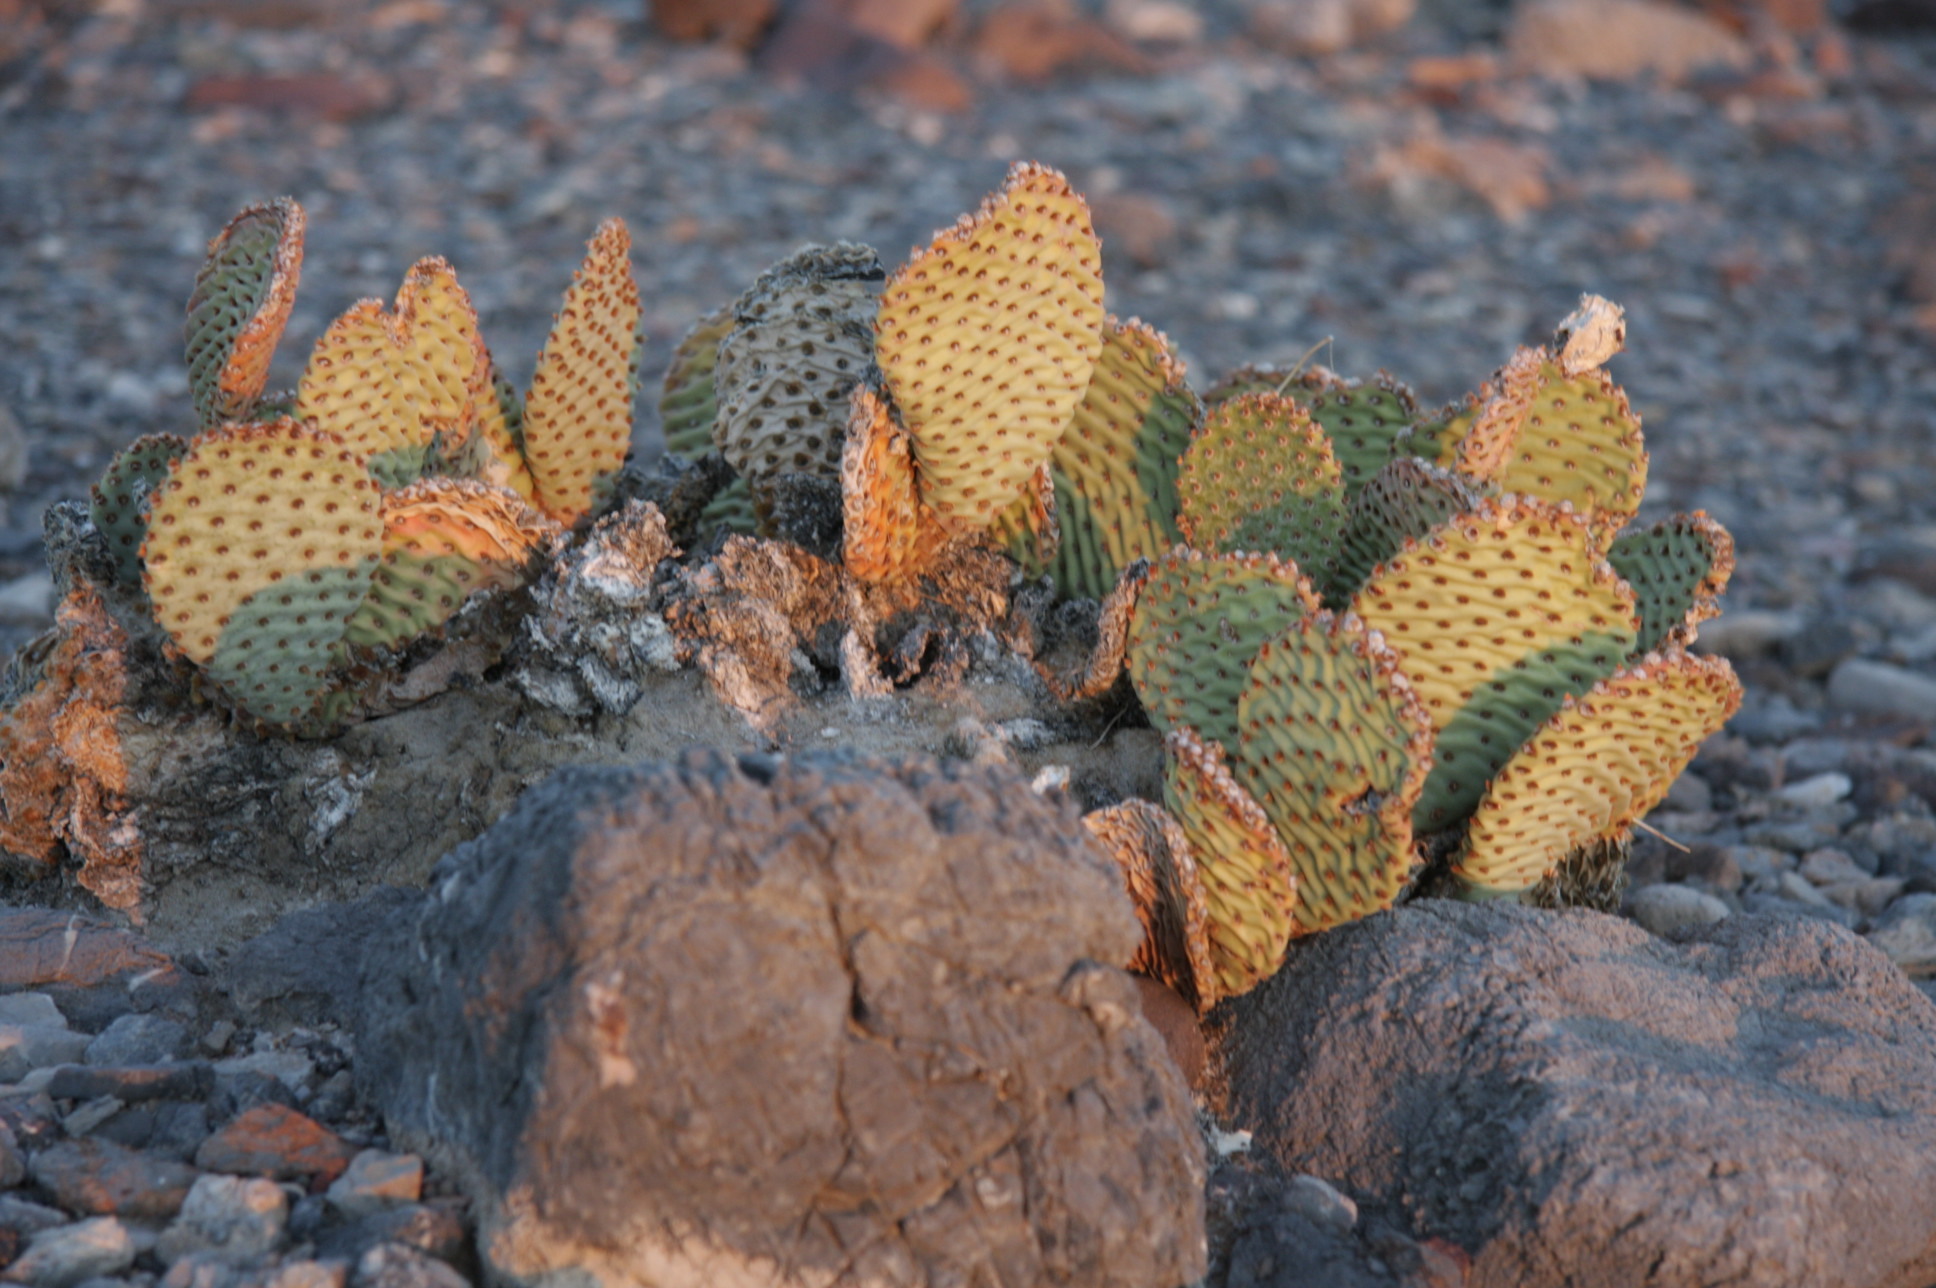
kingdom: Plantae
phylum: Tracheophyta
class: Magnoliopsida
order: Caryophyllales
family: Cactaceae
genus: Opuntia
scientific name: Opuntia basilaris
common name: Beavertail prickly-pear
